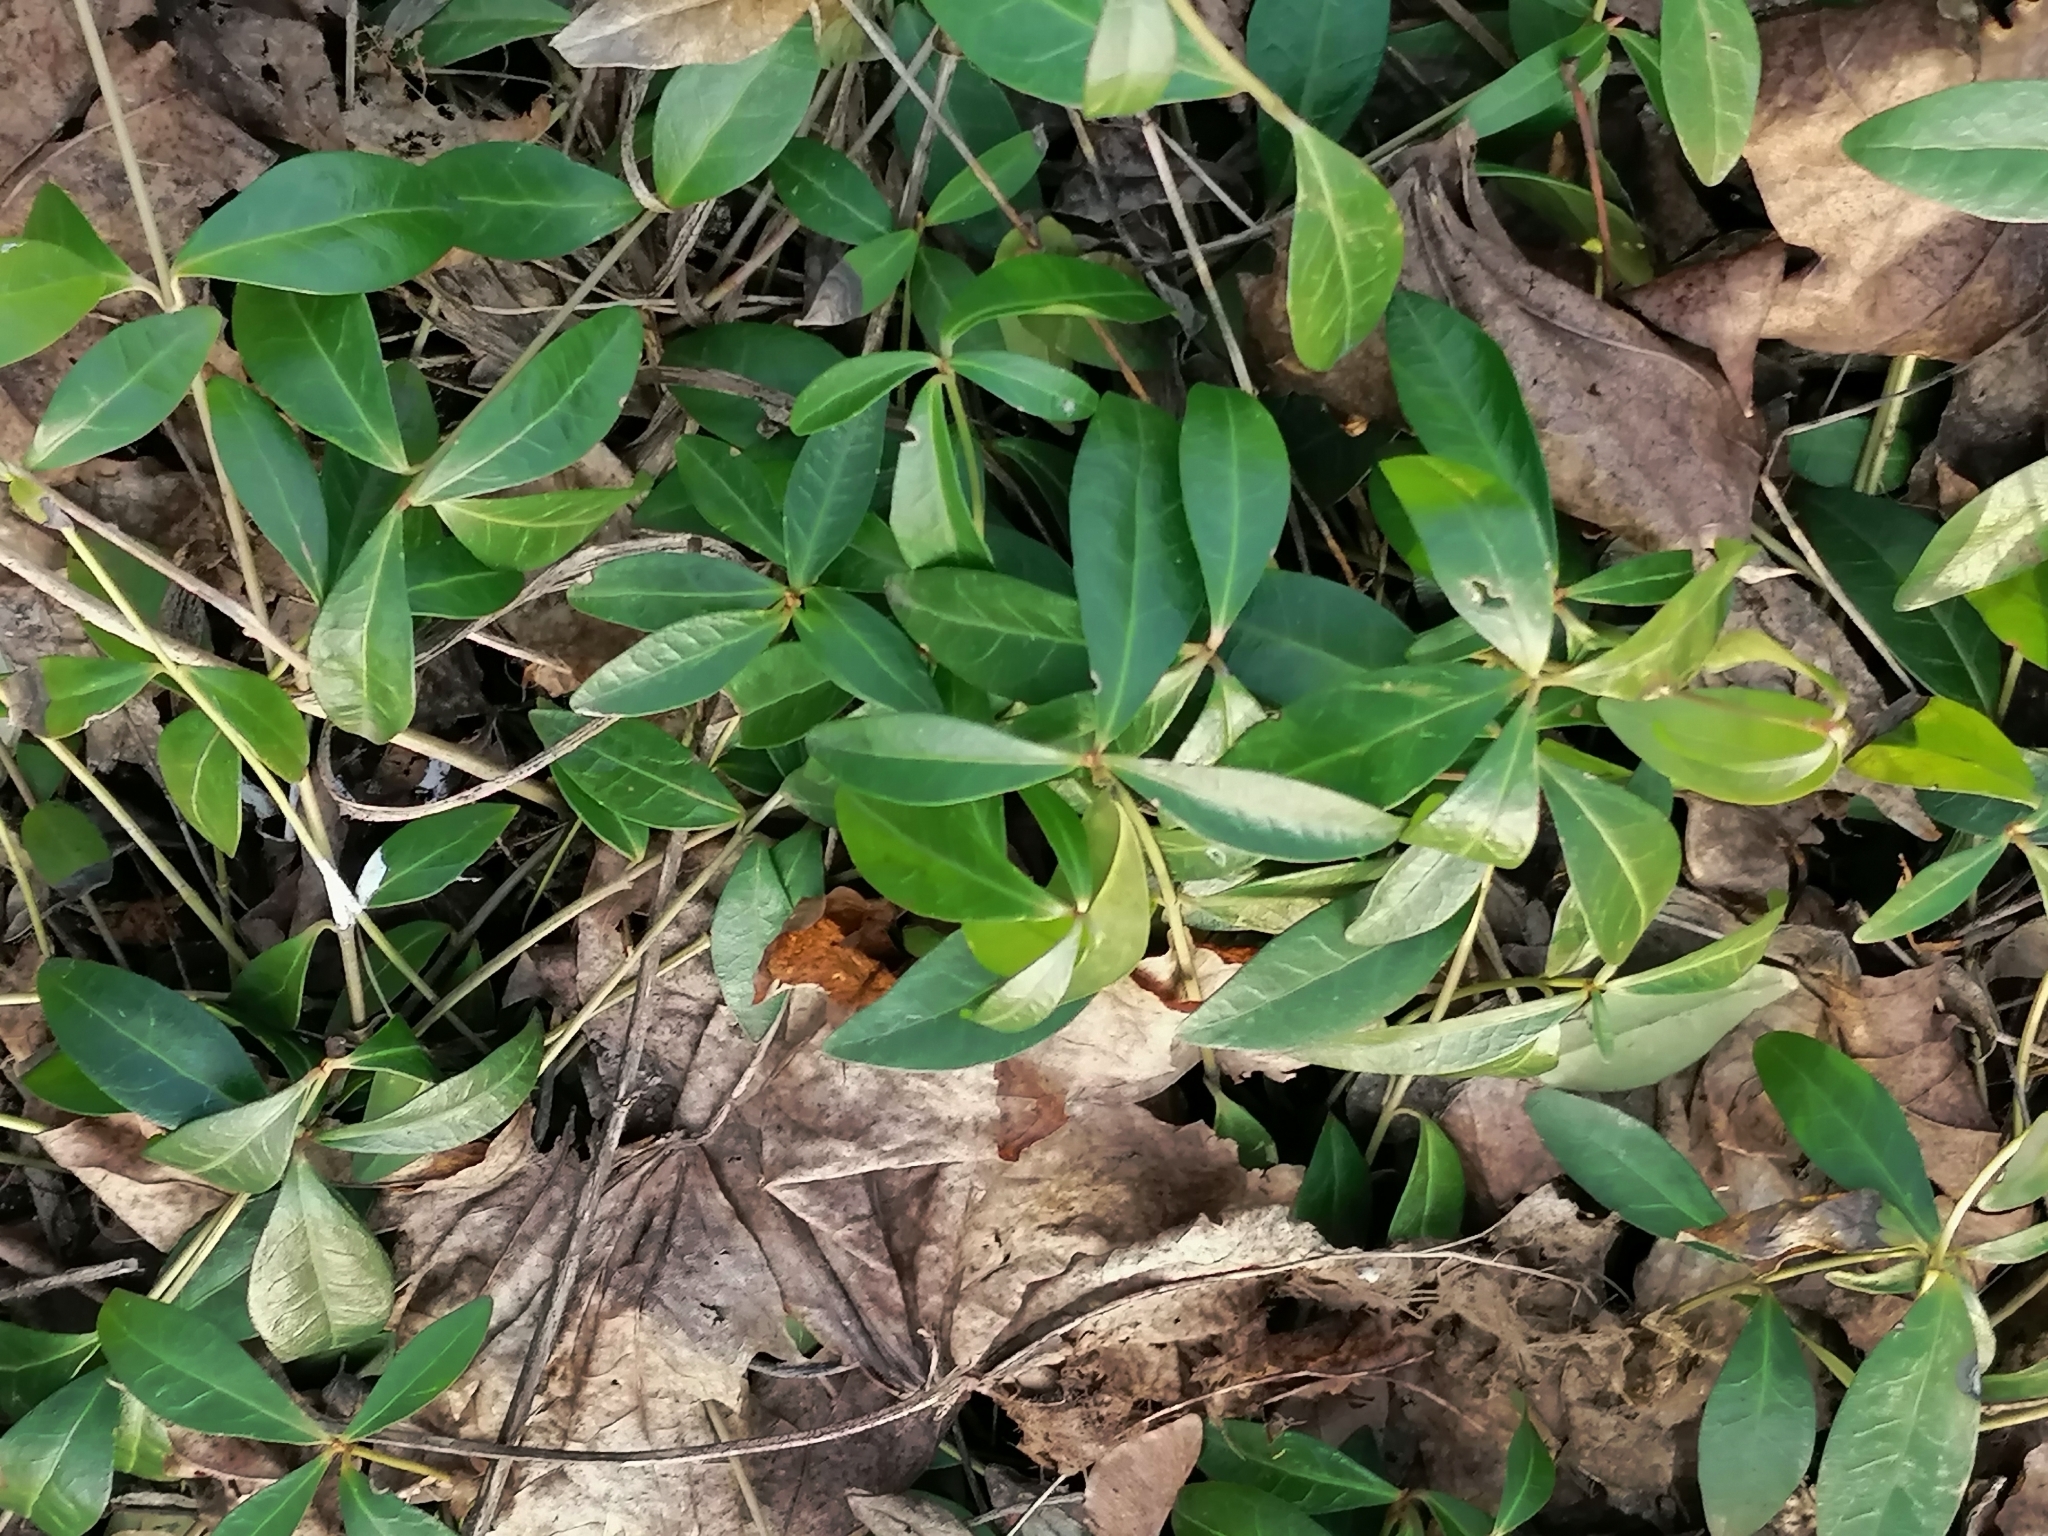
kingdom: Plantae
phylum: Tracheophyta
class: Magnoliopsida
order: Gentianales
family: Apocynaceae
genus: Vinca
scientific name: Vinca minor
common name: Lesser periwinkle
